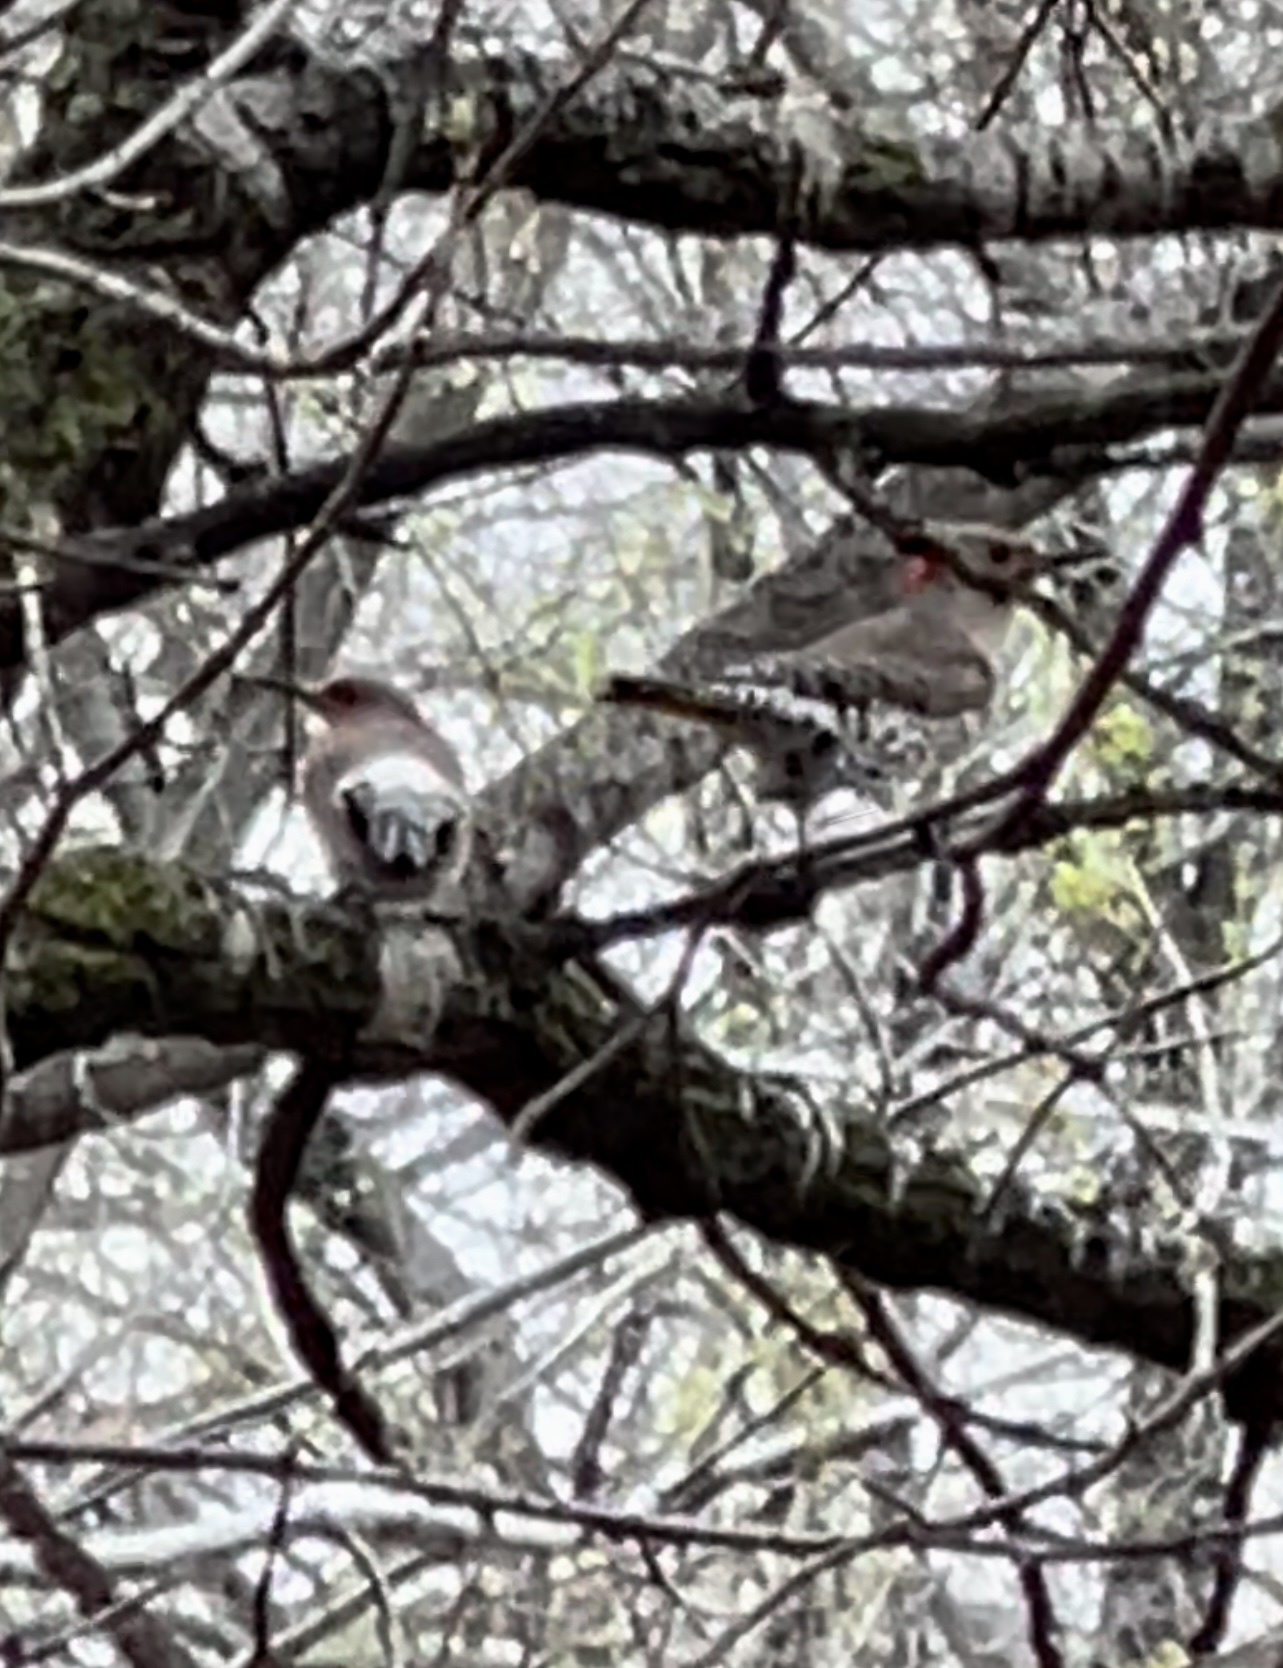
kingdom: Animalia
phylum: Chordata
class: Aves
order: Piciformes
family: Picidae
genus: Colaptes
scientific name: Colaptes auratus
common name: Northern flicker
